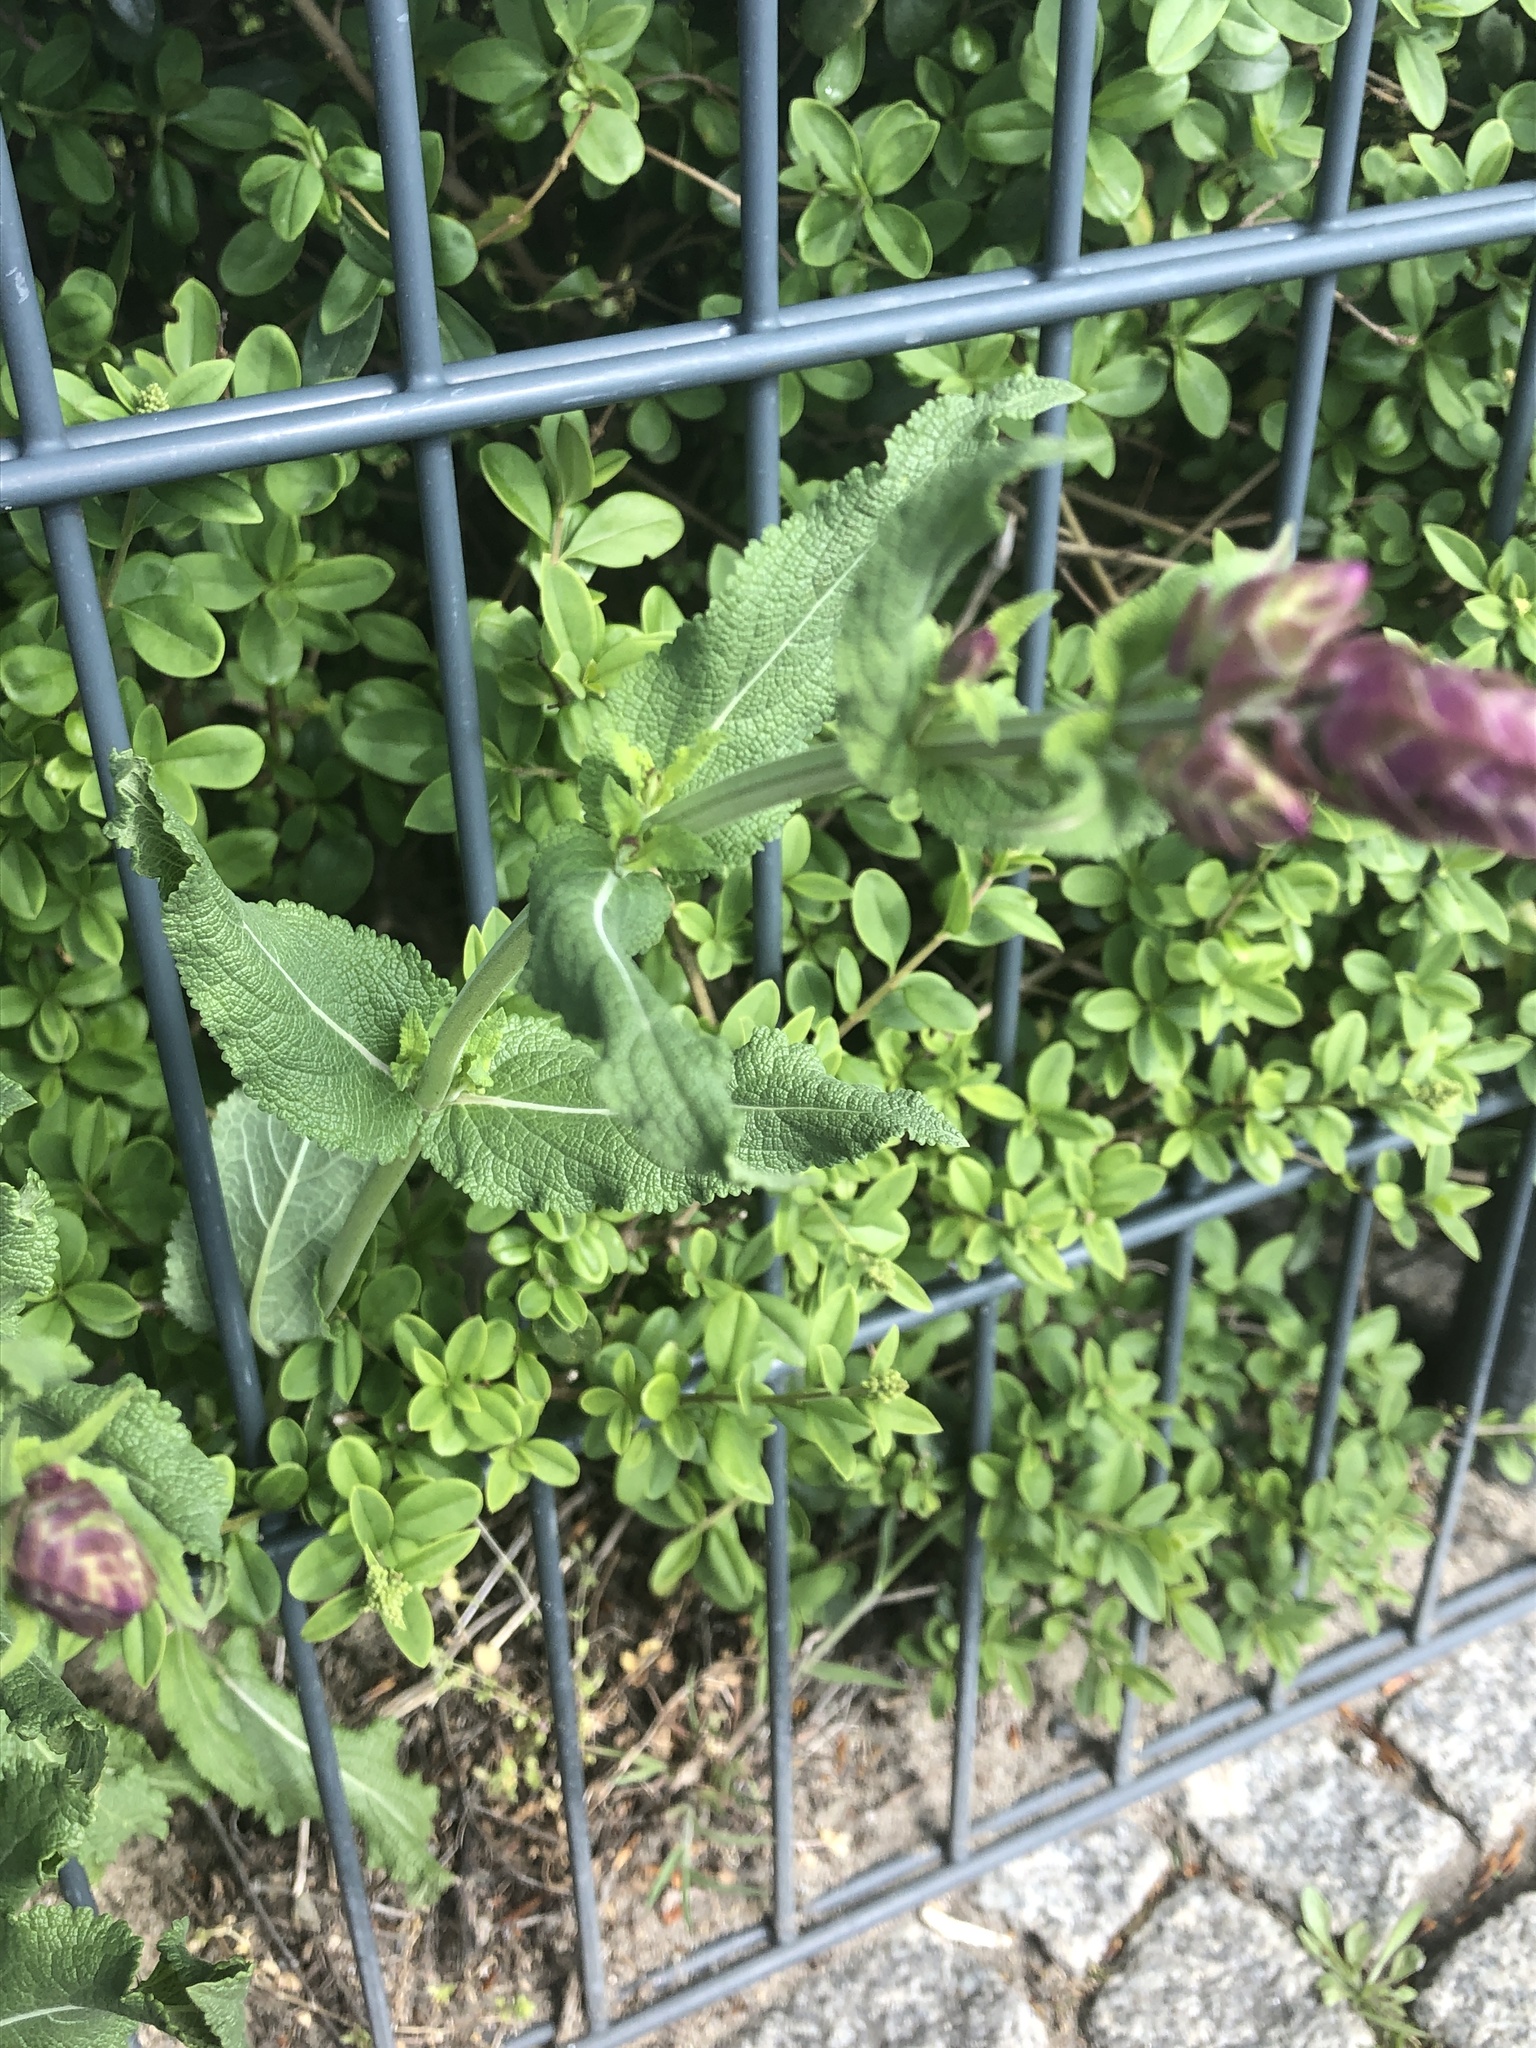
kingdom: Plantae
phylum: Tracheophyta
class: Magnoliopsida
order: Lamiales
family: Lamiaceae
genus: Salvia
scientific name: Salvia nemorosa
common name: Balkan clary
